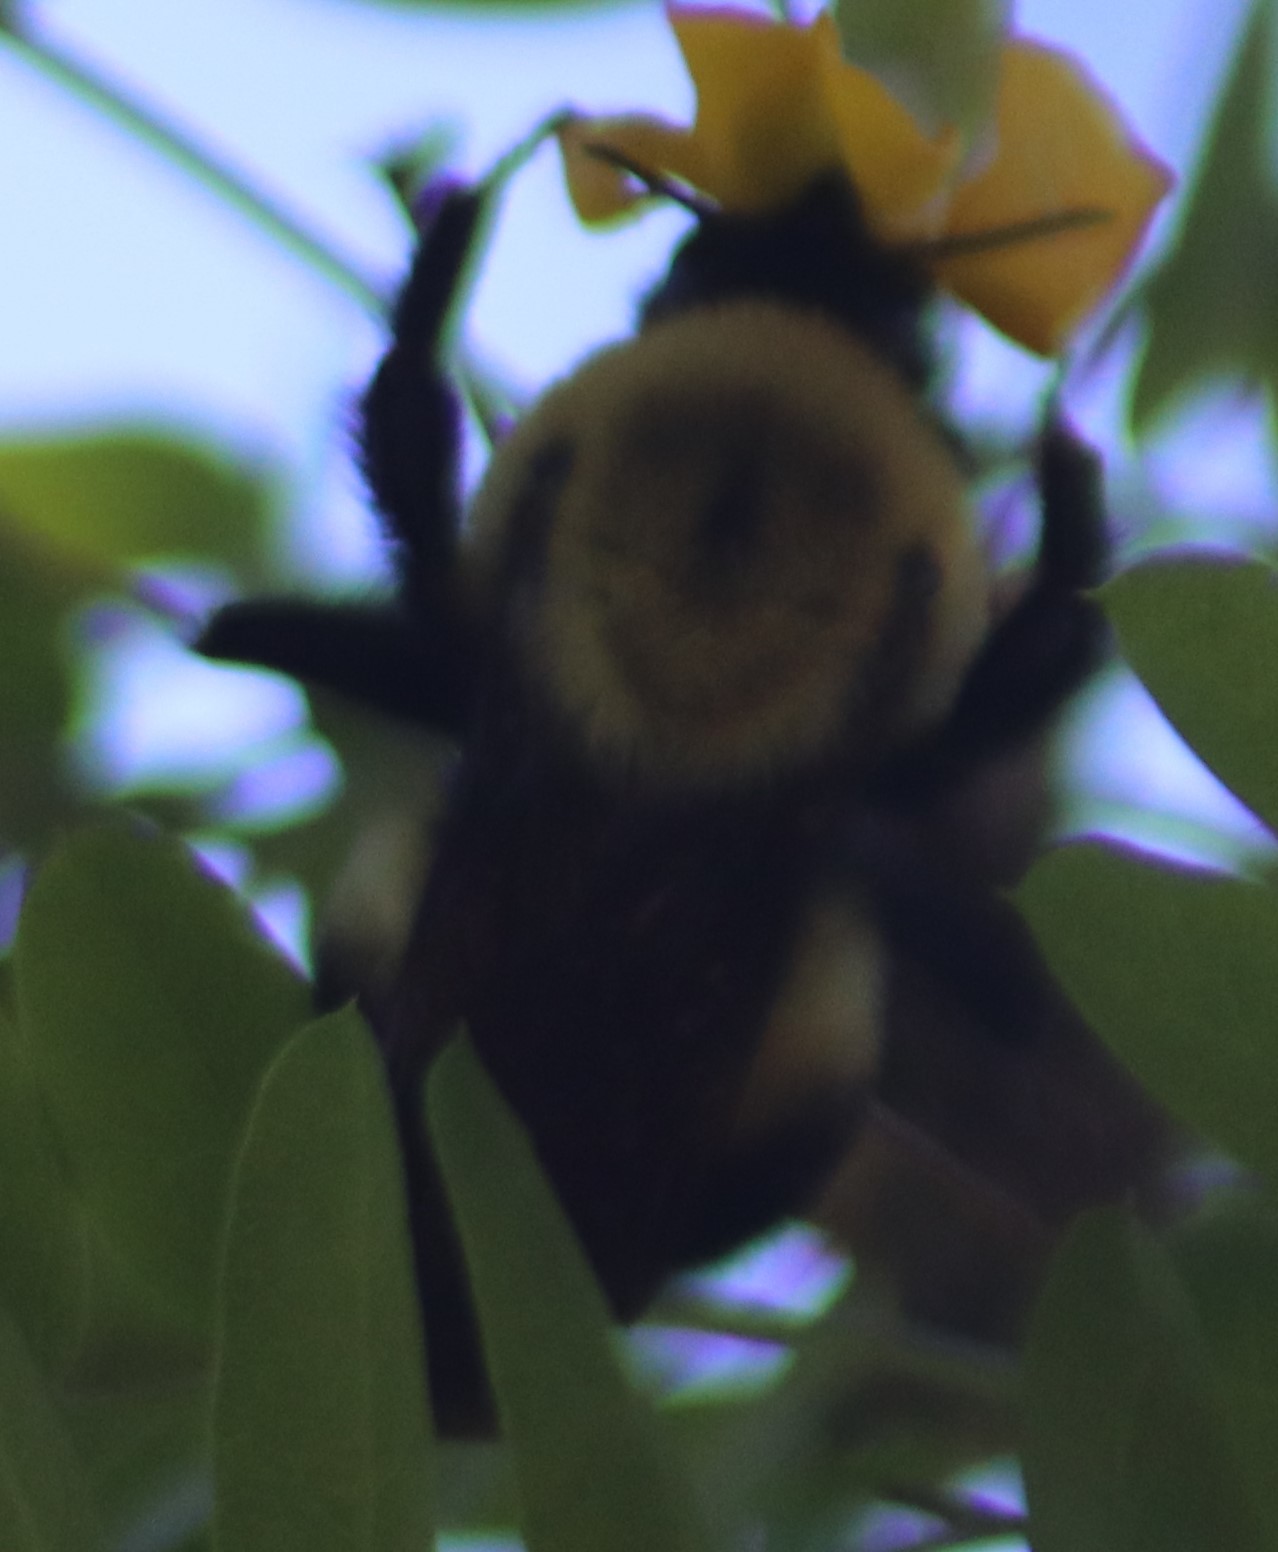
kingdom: Animalia
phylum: Arthropoda
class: Insecta
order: Hymenoptera
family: Apidae
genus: Bombus
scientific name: Bombus nevadensis
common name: Nevada bumble bee
